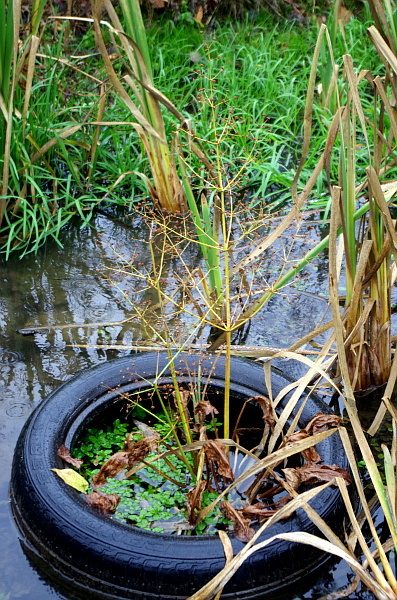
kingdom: Plantae
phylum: Tracheophyta
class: Liliopsida
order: Alismatales
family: Alismataceae
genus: Alisma
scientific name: Alisma plantago-aquatica
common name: Water-plantain
